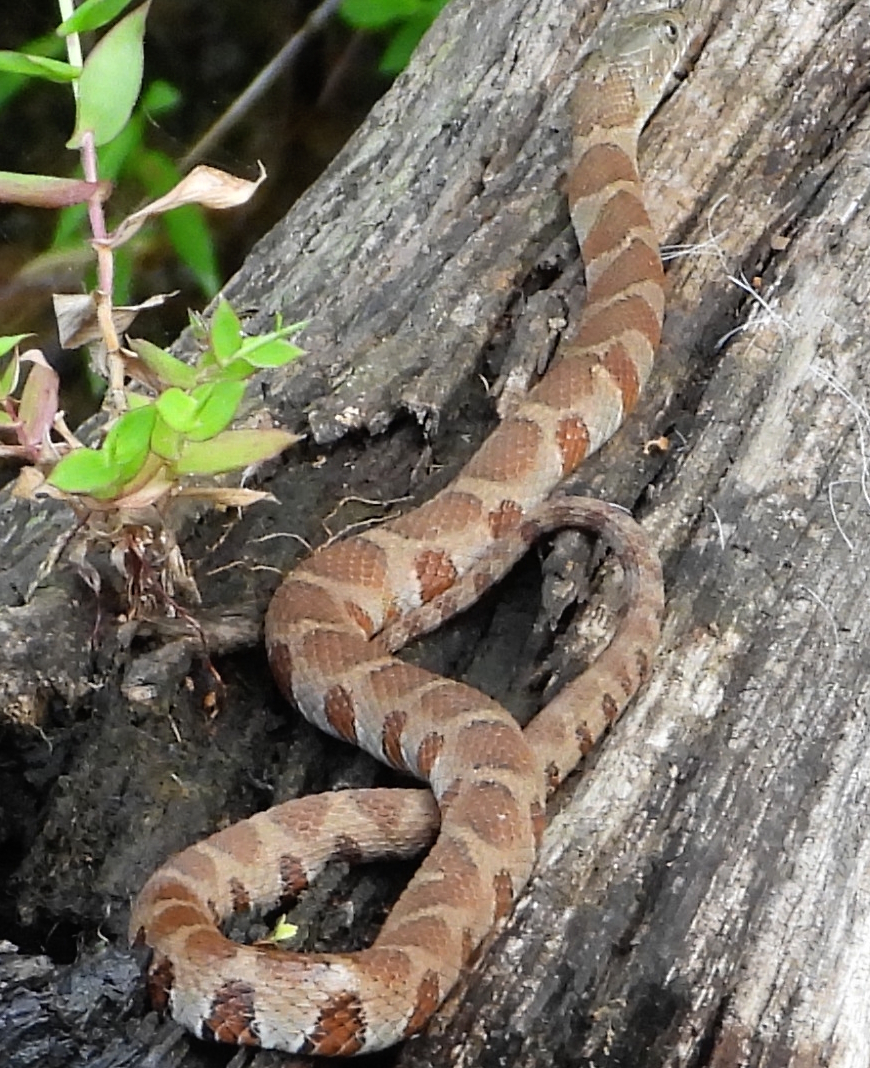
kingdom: Animalia
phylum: Chordata
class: Squamata
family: Colubridae
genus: Nerodia
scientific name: Nerodia sipedon
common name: Northern water snake
